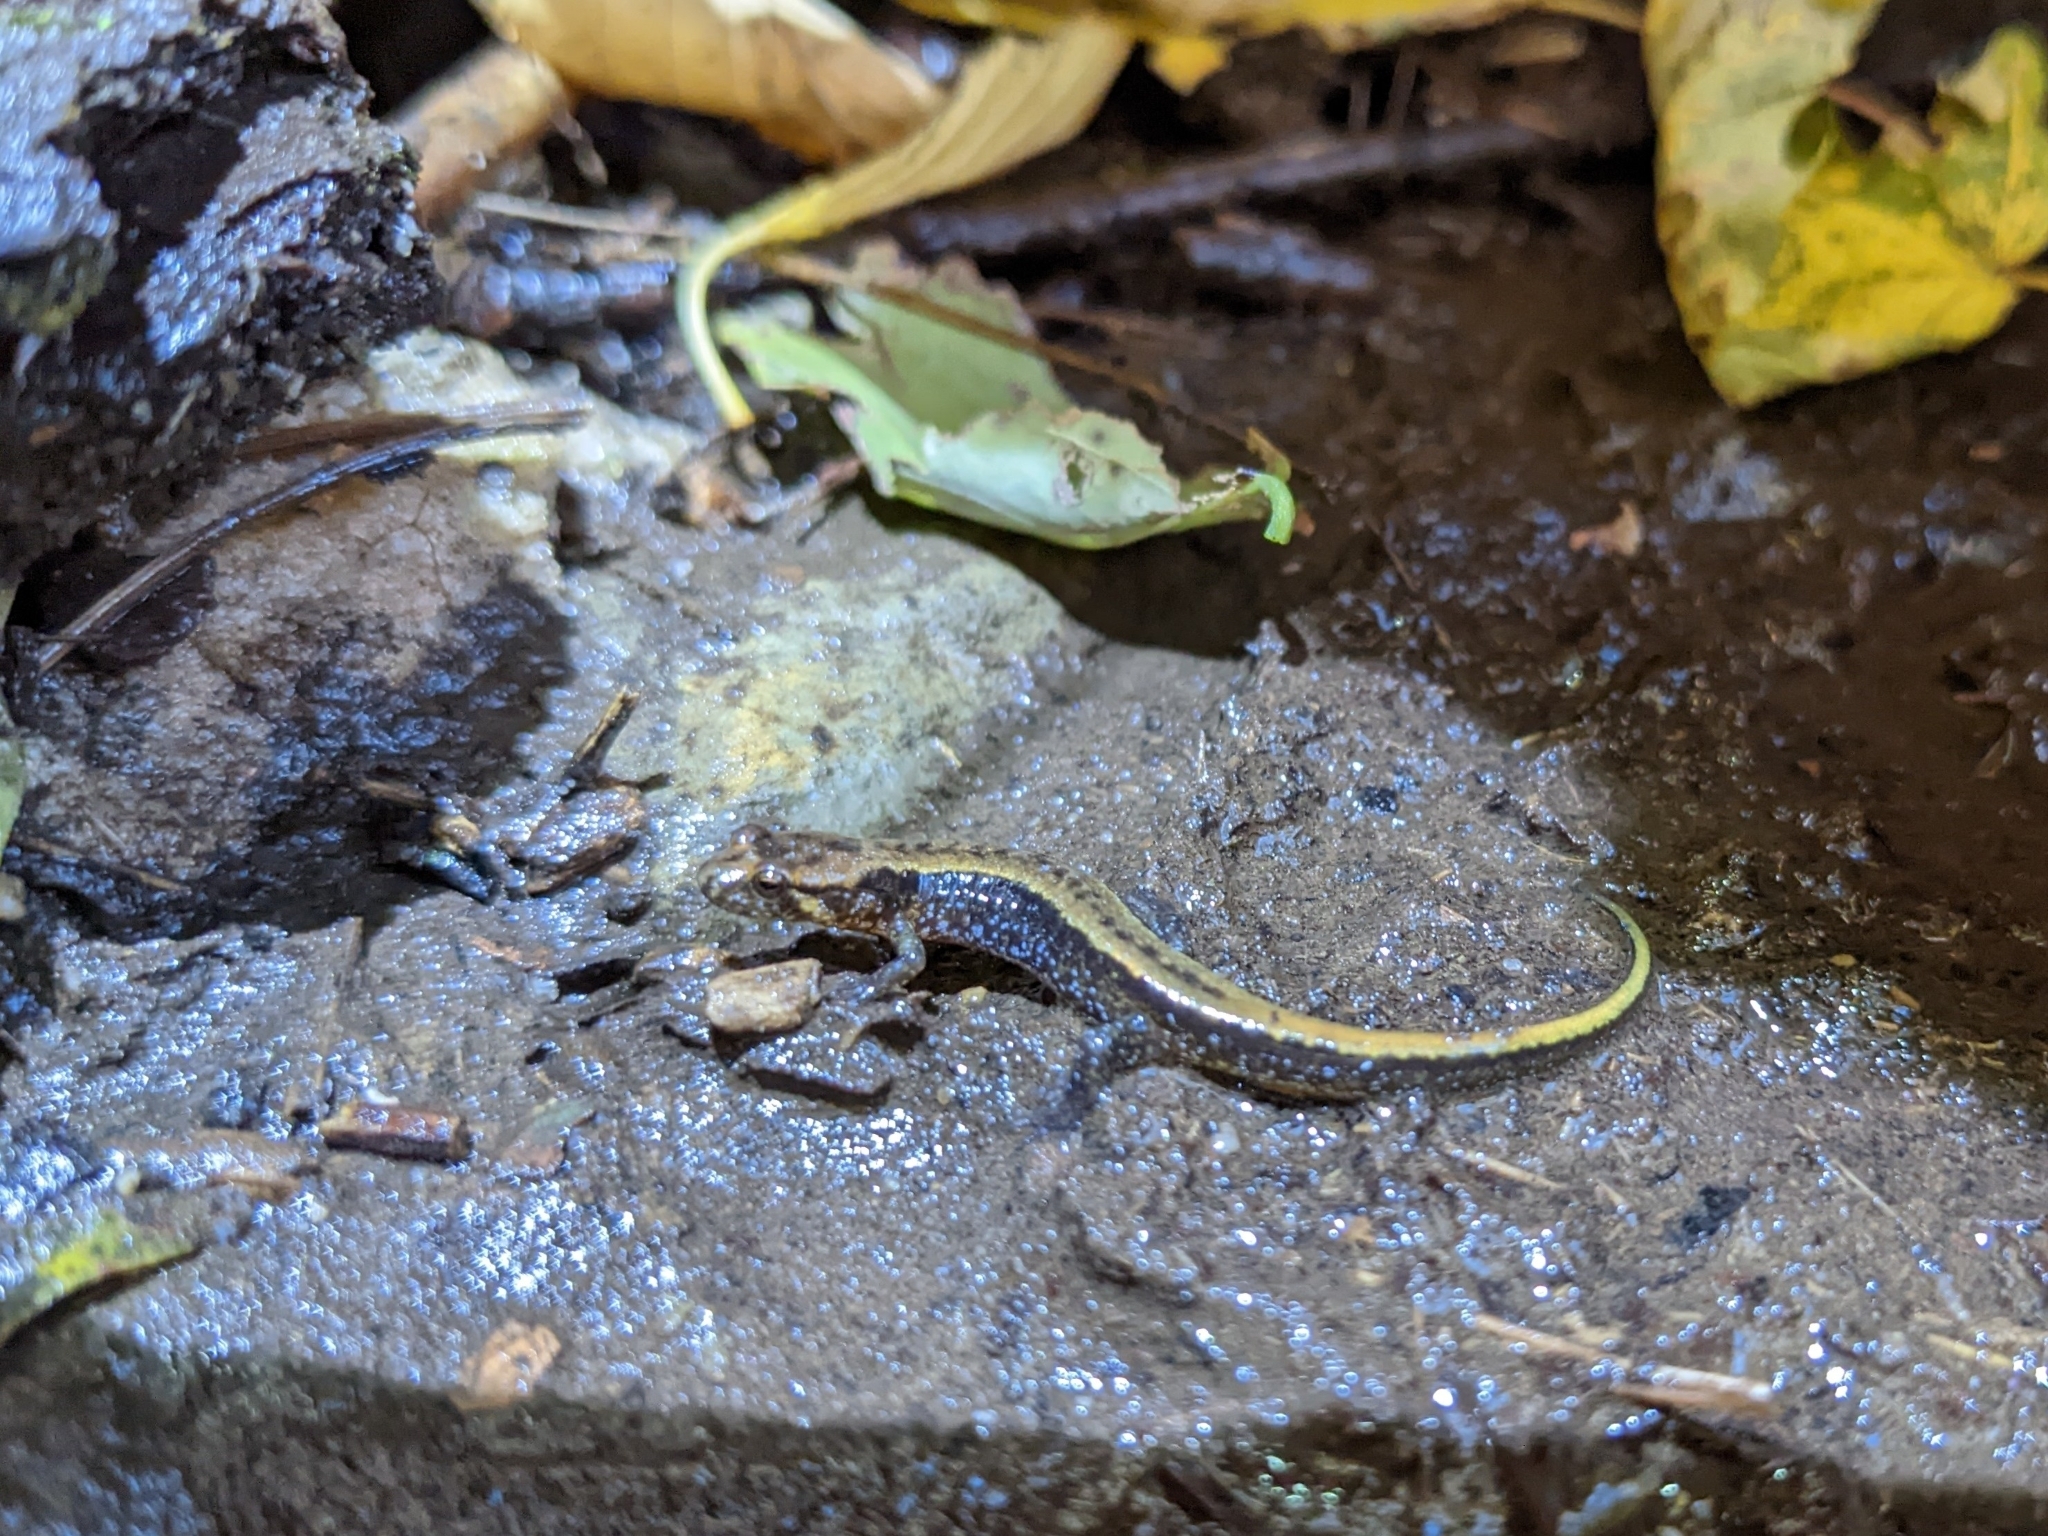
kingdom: Animalia
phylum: Chordata
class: Amphibia
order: Caudata
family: Plethodontidae
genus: Desmognathus
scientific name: Desmognathus ochrophaeus
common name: Allegheny mountain dusky salamander
